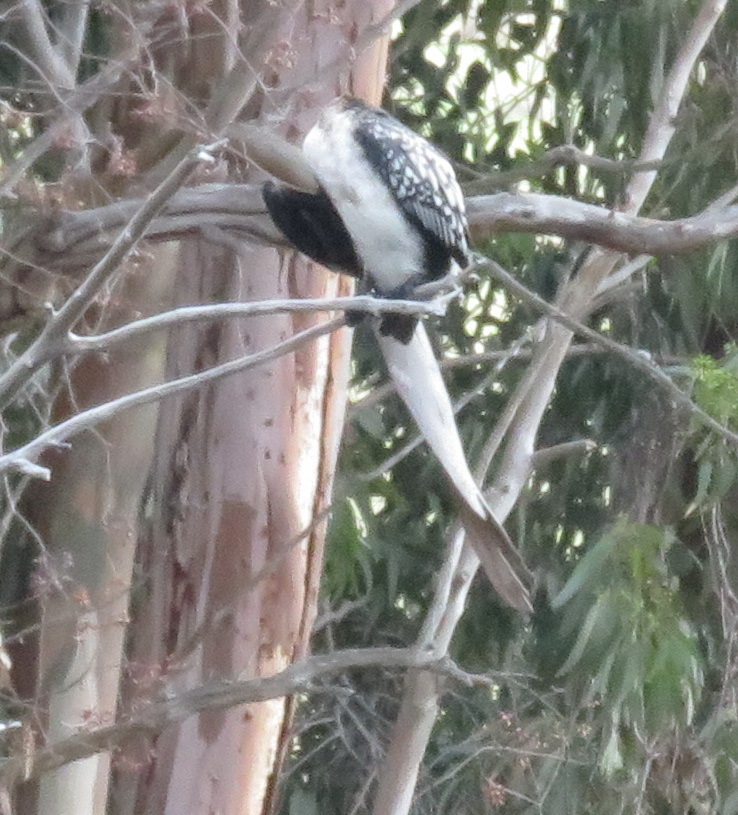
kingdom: Animalia
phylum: Chordata
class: Aves
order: Suliformes
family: Phalacrocoracidae
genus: Phalacrocorax
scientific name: Phalacrocorax carbo
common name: Great cormorant
